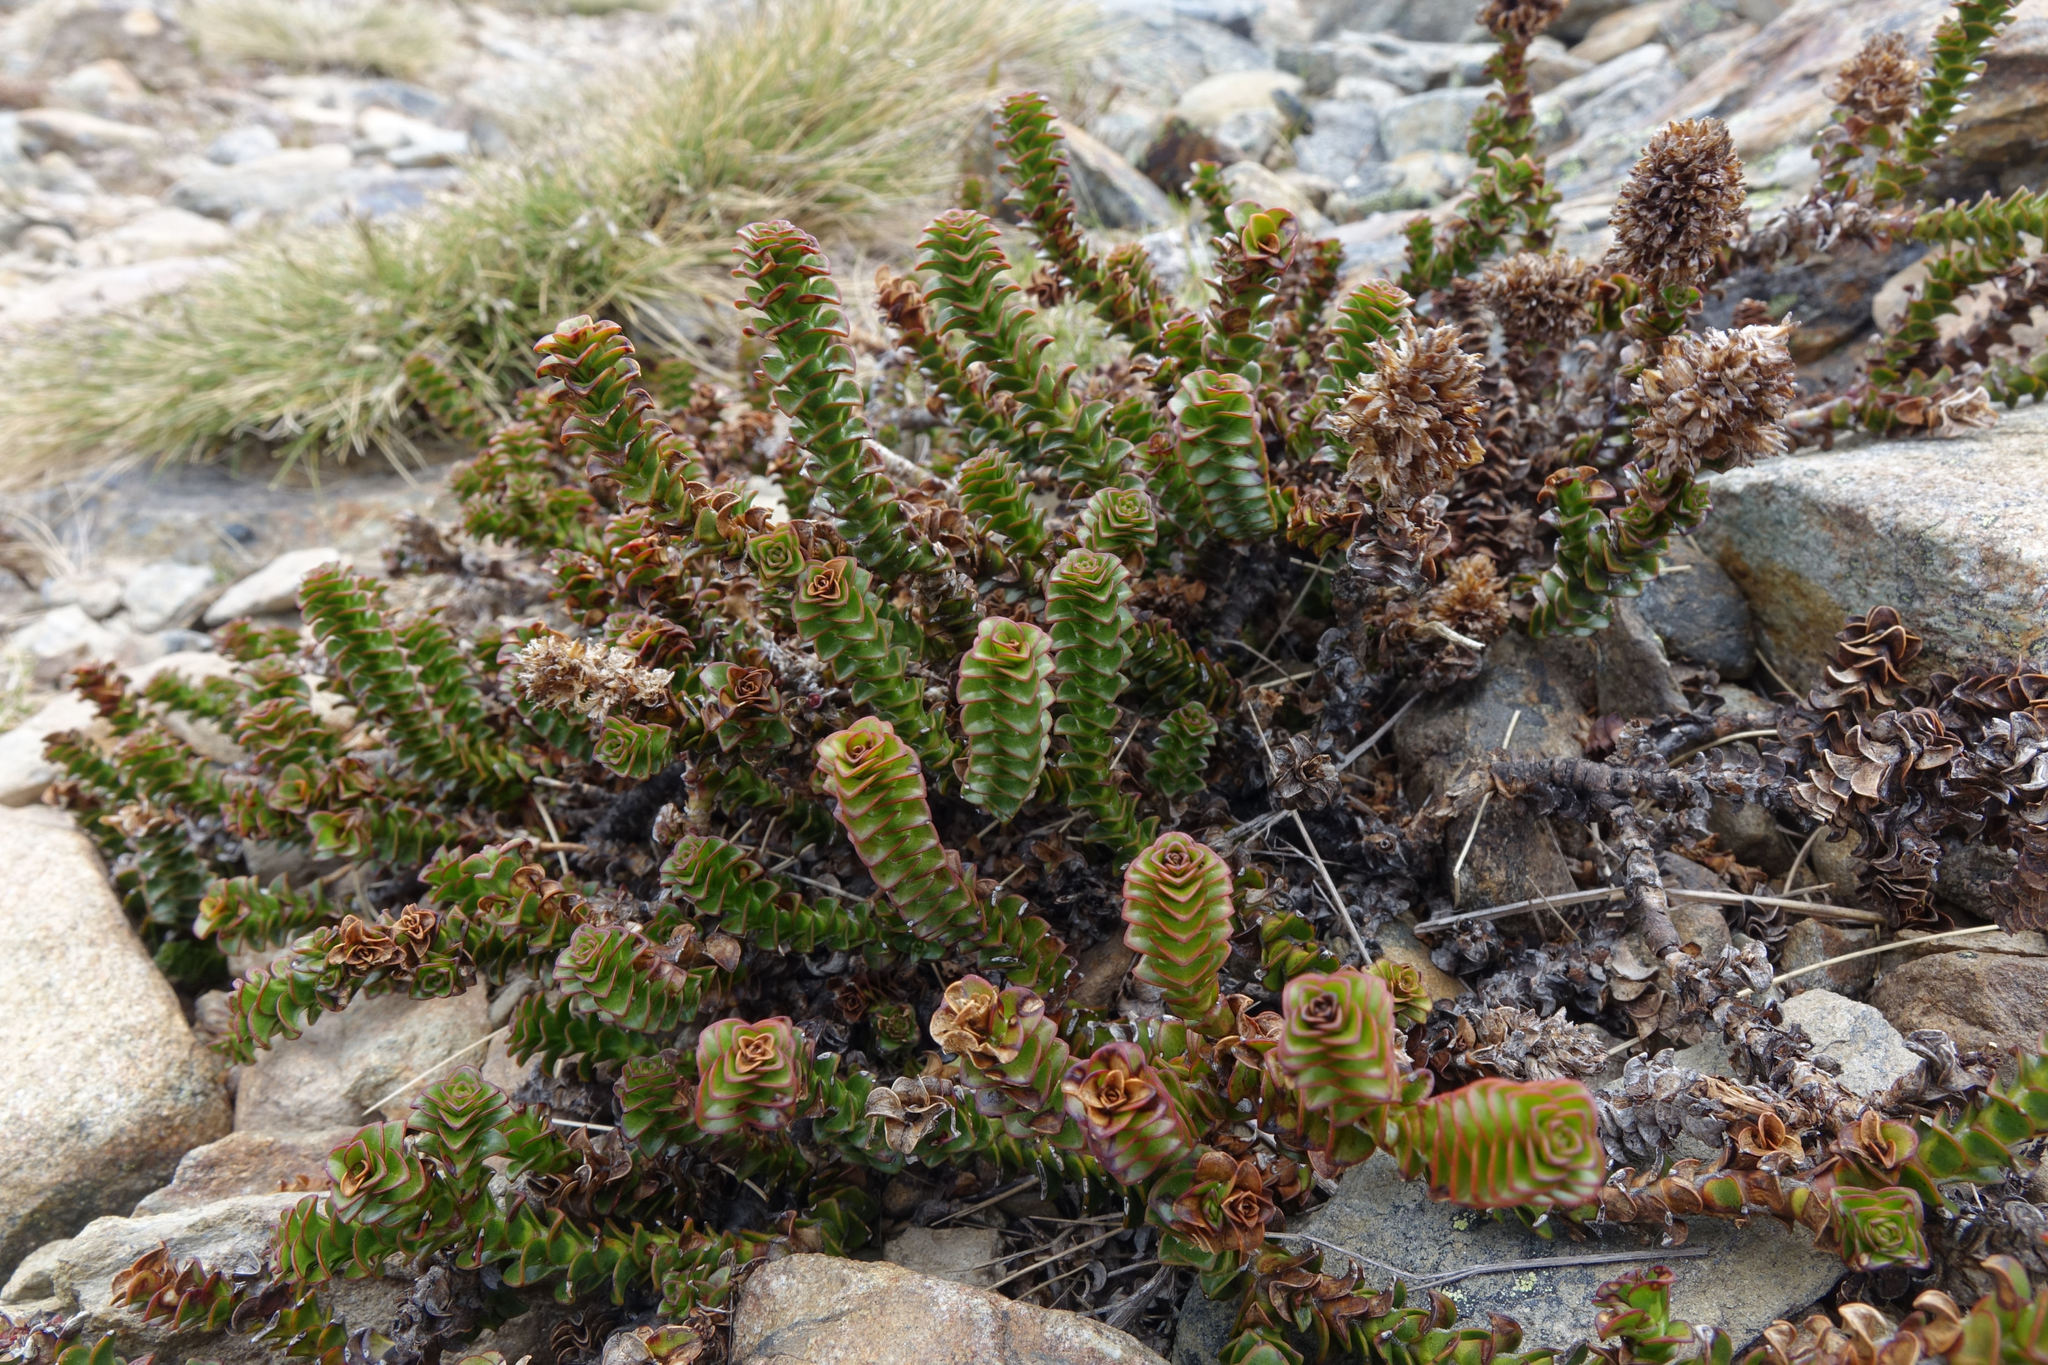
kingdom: Plantae
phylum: Tracheophyta
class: Magnoliopsida
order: Lamiales
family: Plantaginaceae
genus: Veronica
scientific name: Veronica epacridea
